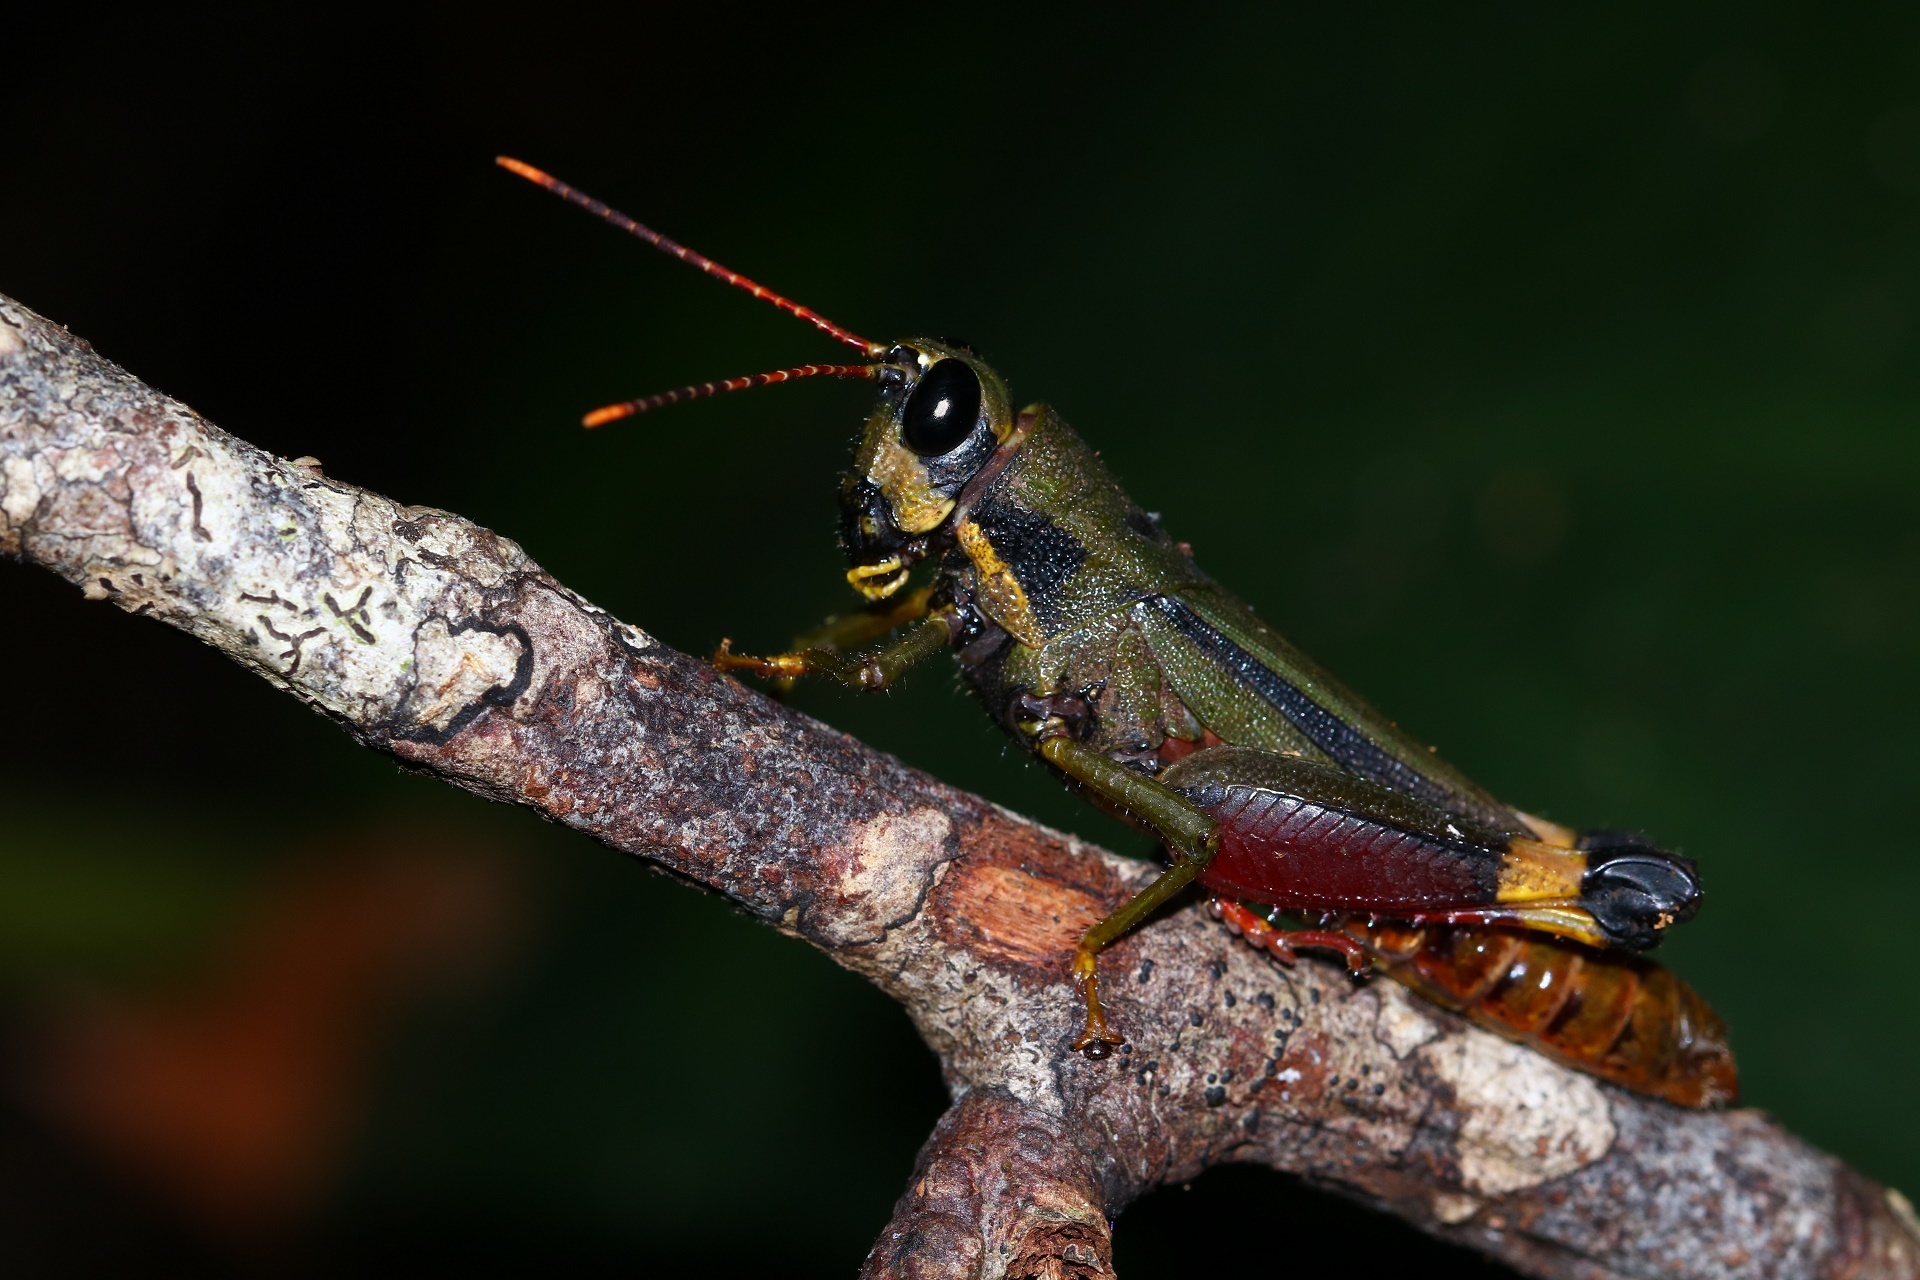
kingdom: Animalia
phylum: Arthropoda
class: Insecta
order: Orthoptera
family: Acrididae
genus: Traulia
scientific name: Traulia bimaculata
